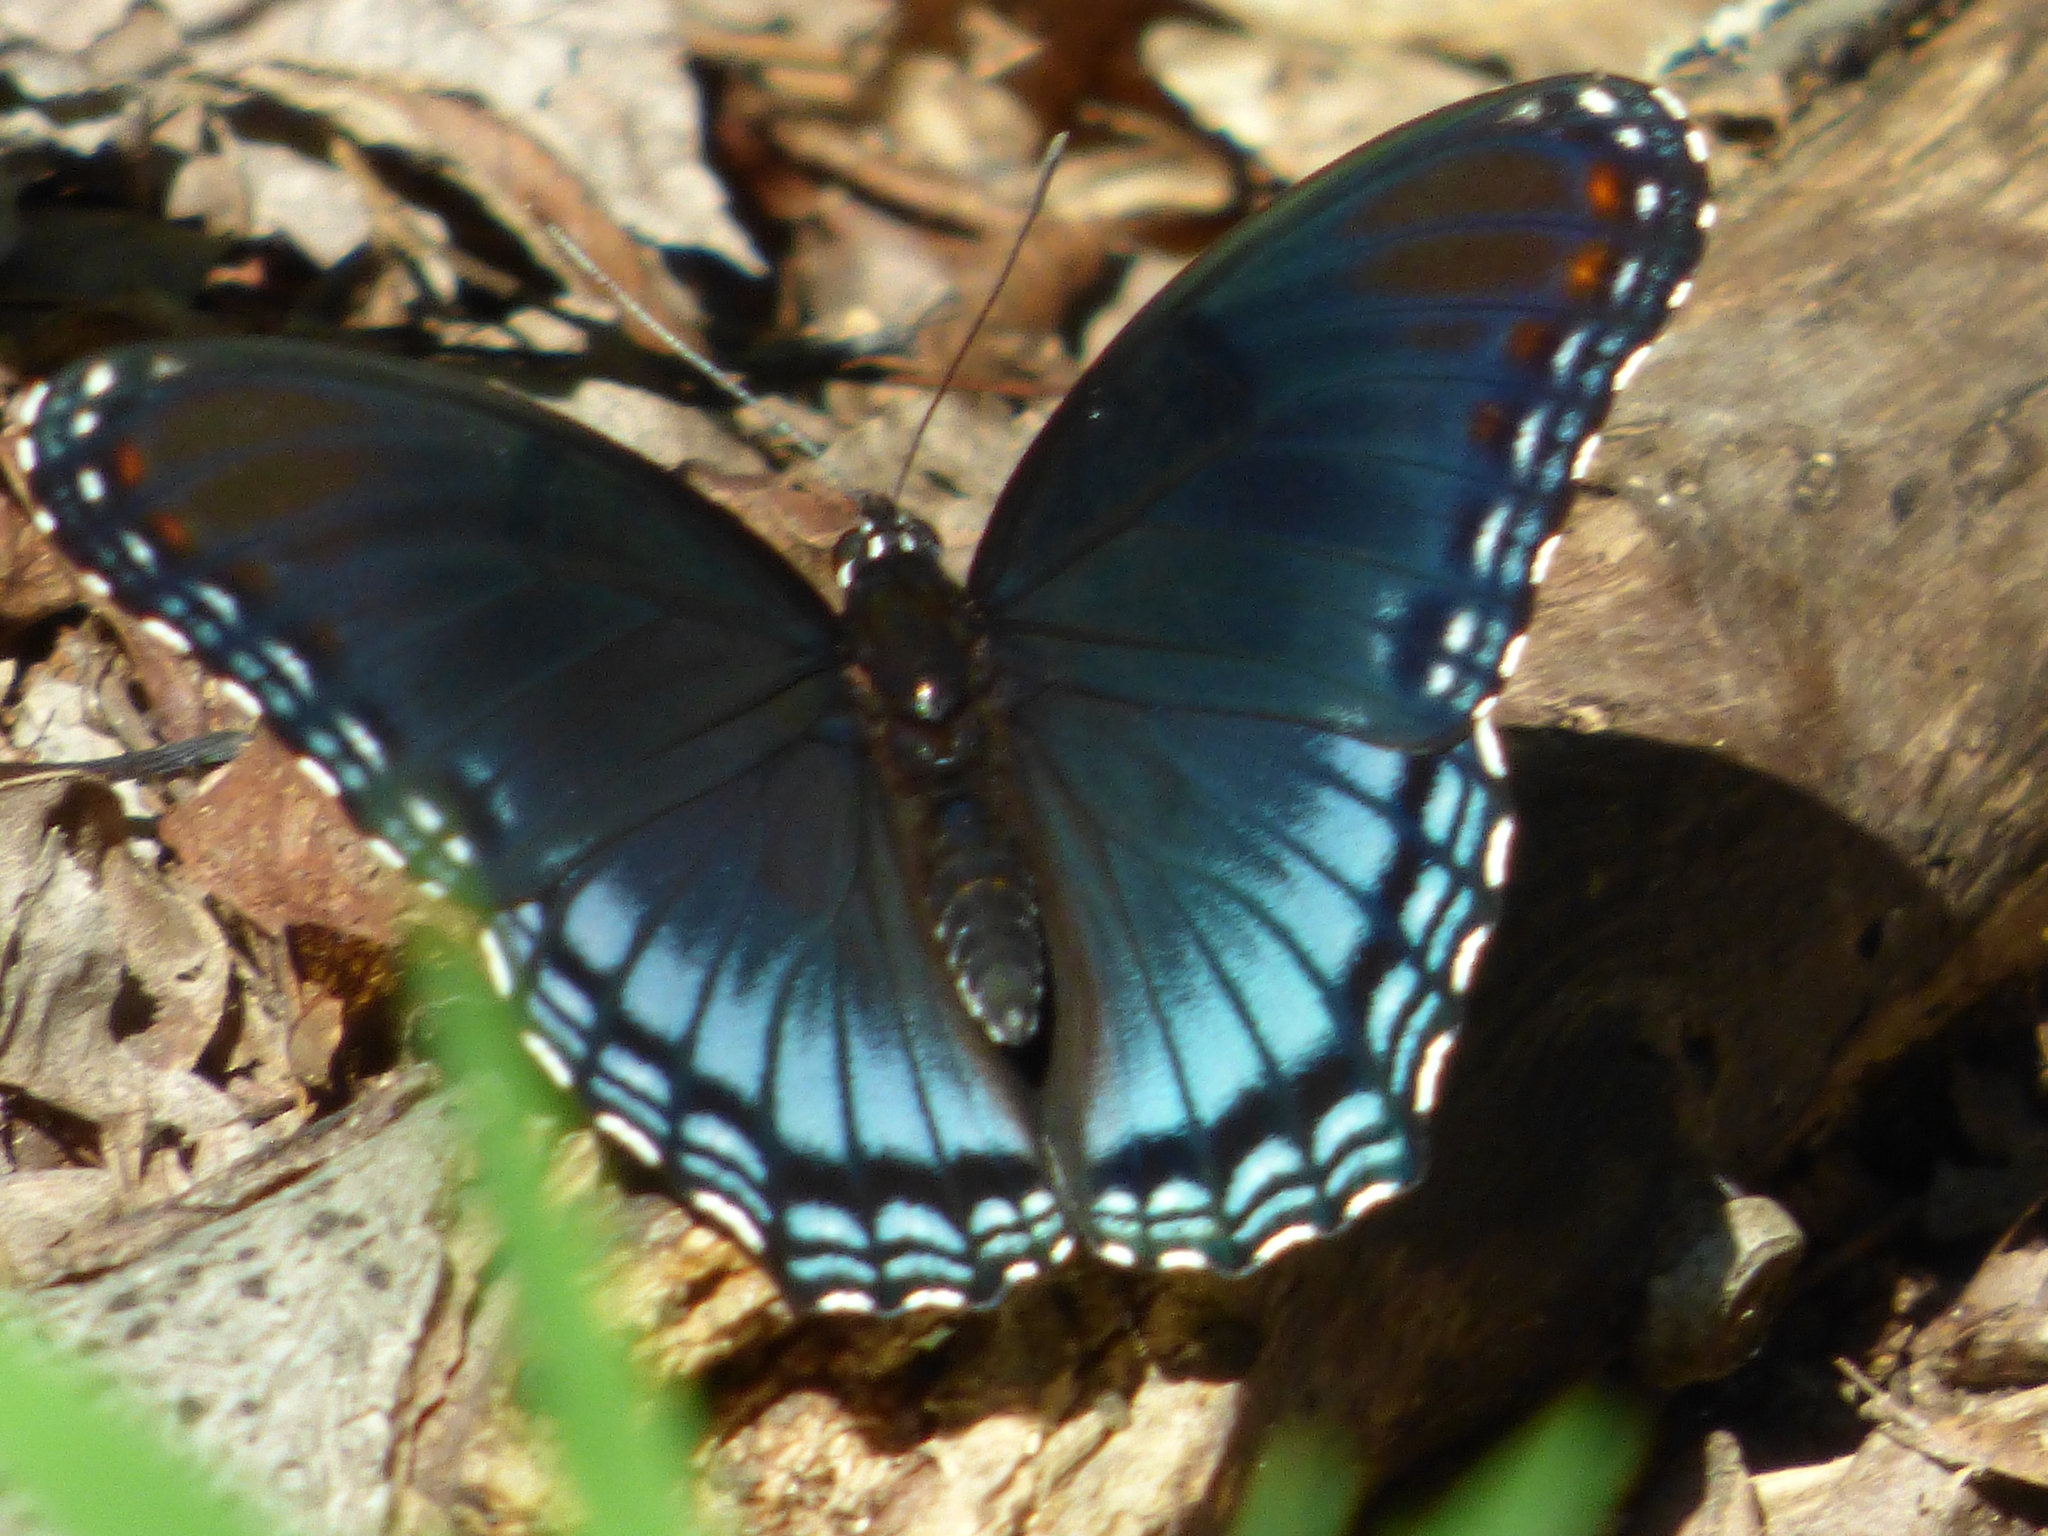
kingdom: Animalia
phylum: Arthropoda
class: Insecta
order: Lepidoptera
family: Nymphalidae
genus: Limenitis
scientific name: Limenitis astyanax
